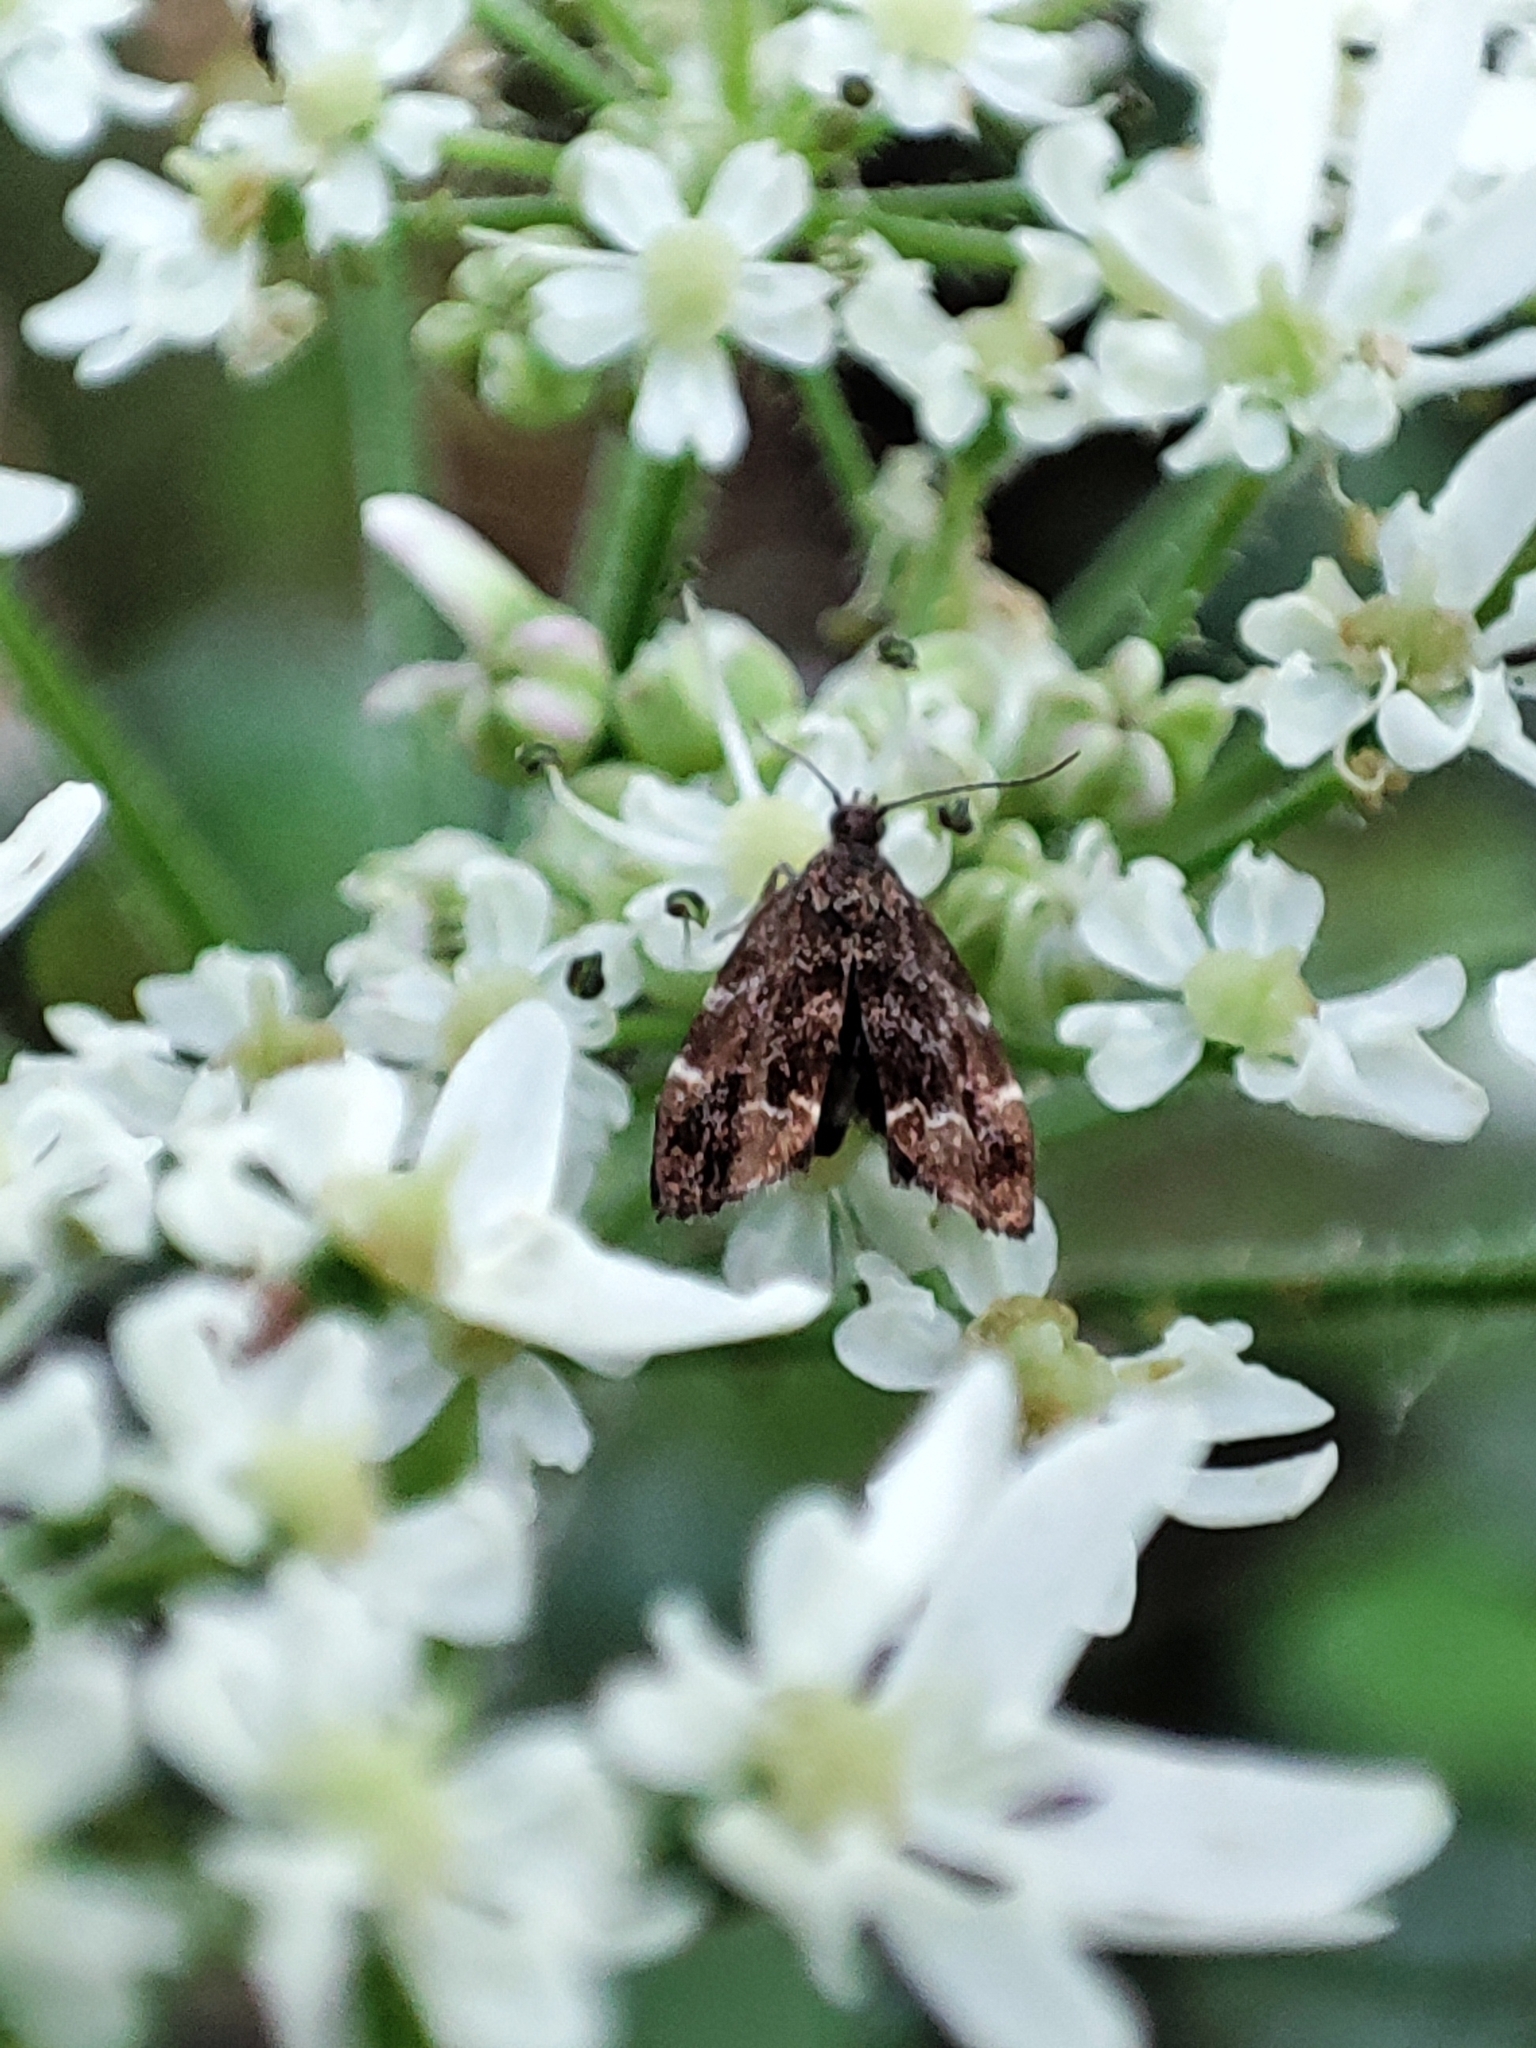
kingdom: Animalia
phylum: Arthropoda
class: Insecta
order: Lepidoptera
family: Choreutidae
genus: Anthophila
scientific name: Anthophila fabriciana
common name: Nettle-tap
